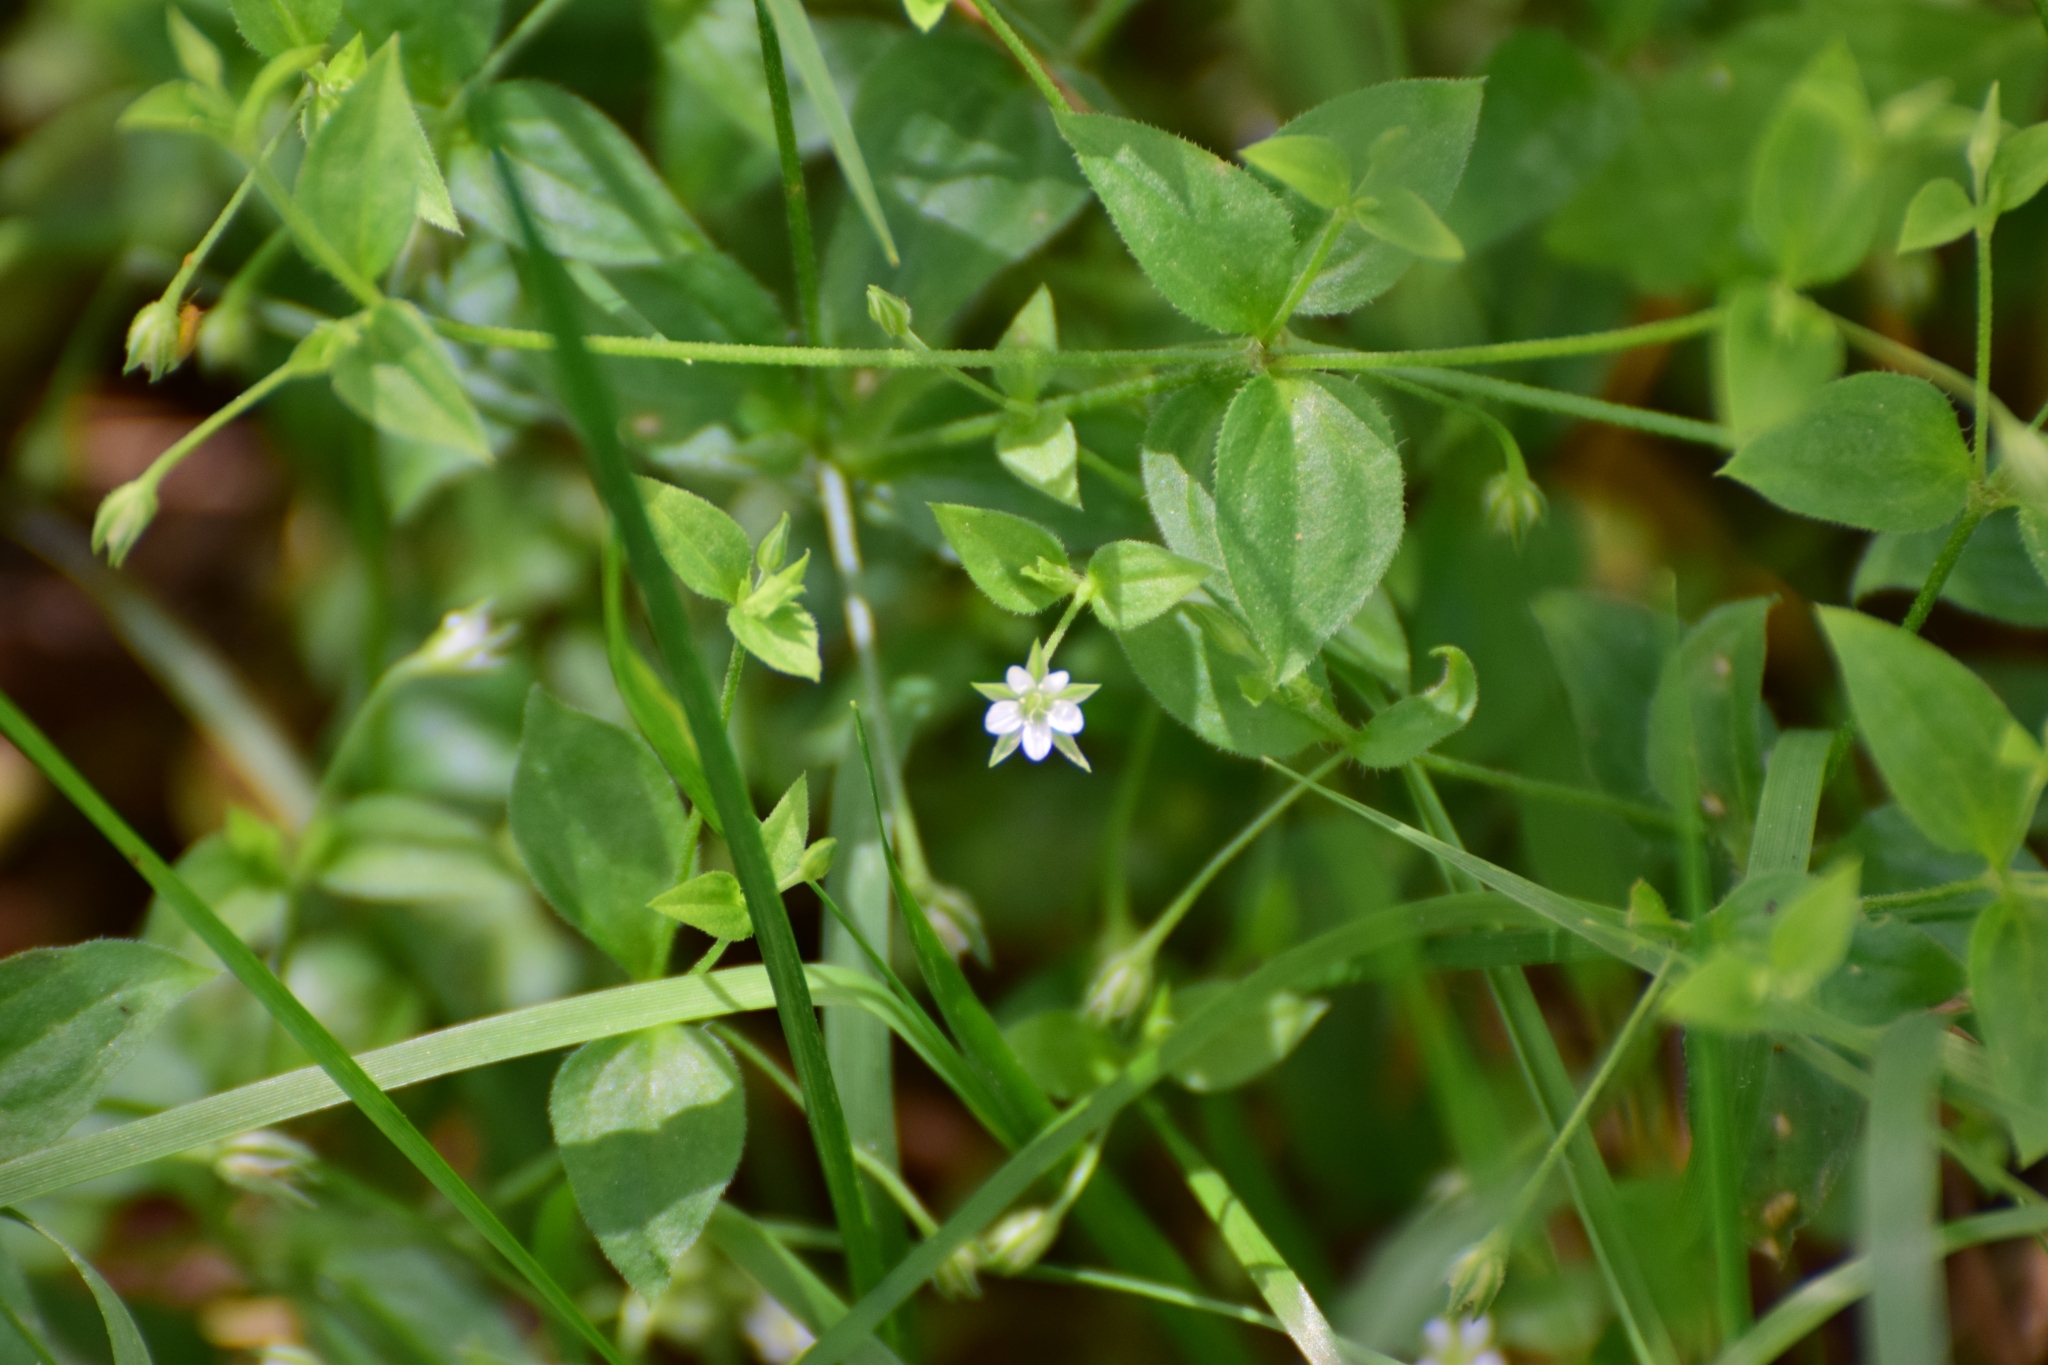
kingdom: Plantae
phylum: Tracheophyta
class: Magnoliopsida
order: Caryophyllales
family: Caryophyllaceae
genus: Moehringia
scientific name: Moehringia trinervia
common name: Three-nerved sandwort
